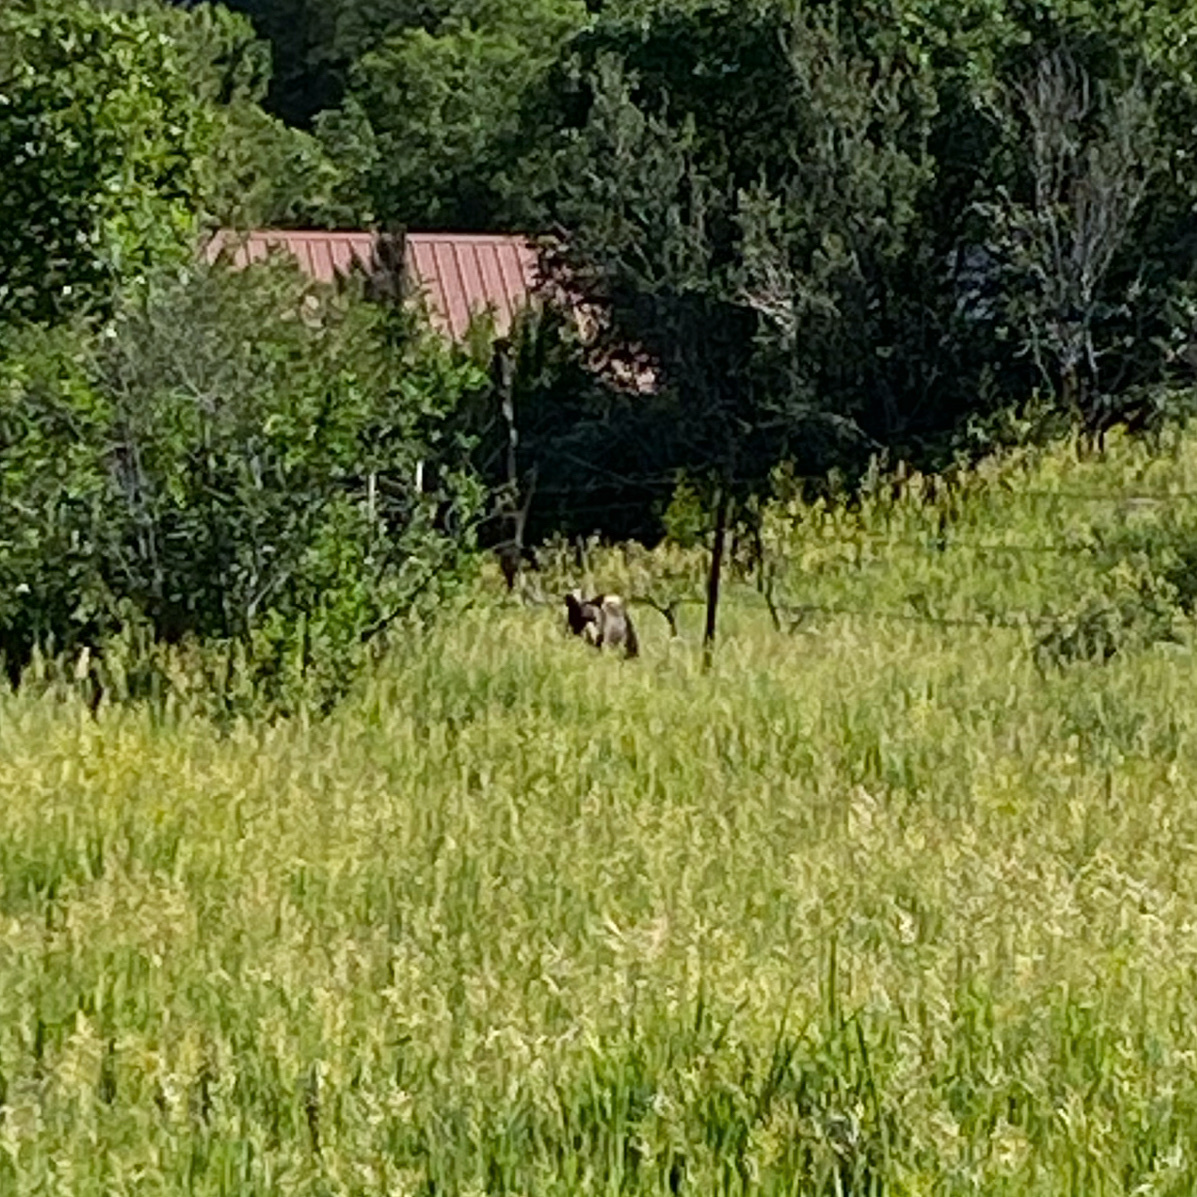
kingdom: Animalia
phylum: Chordata
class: Mammalia
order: Carnivora
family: Ursidae
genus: Ursus
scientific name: Ursus americanus
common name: American black bear
